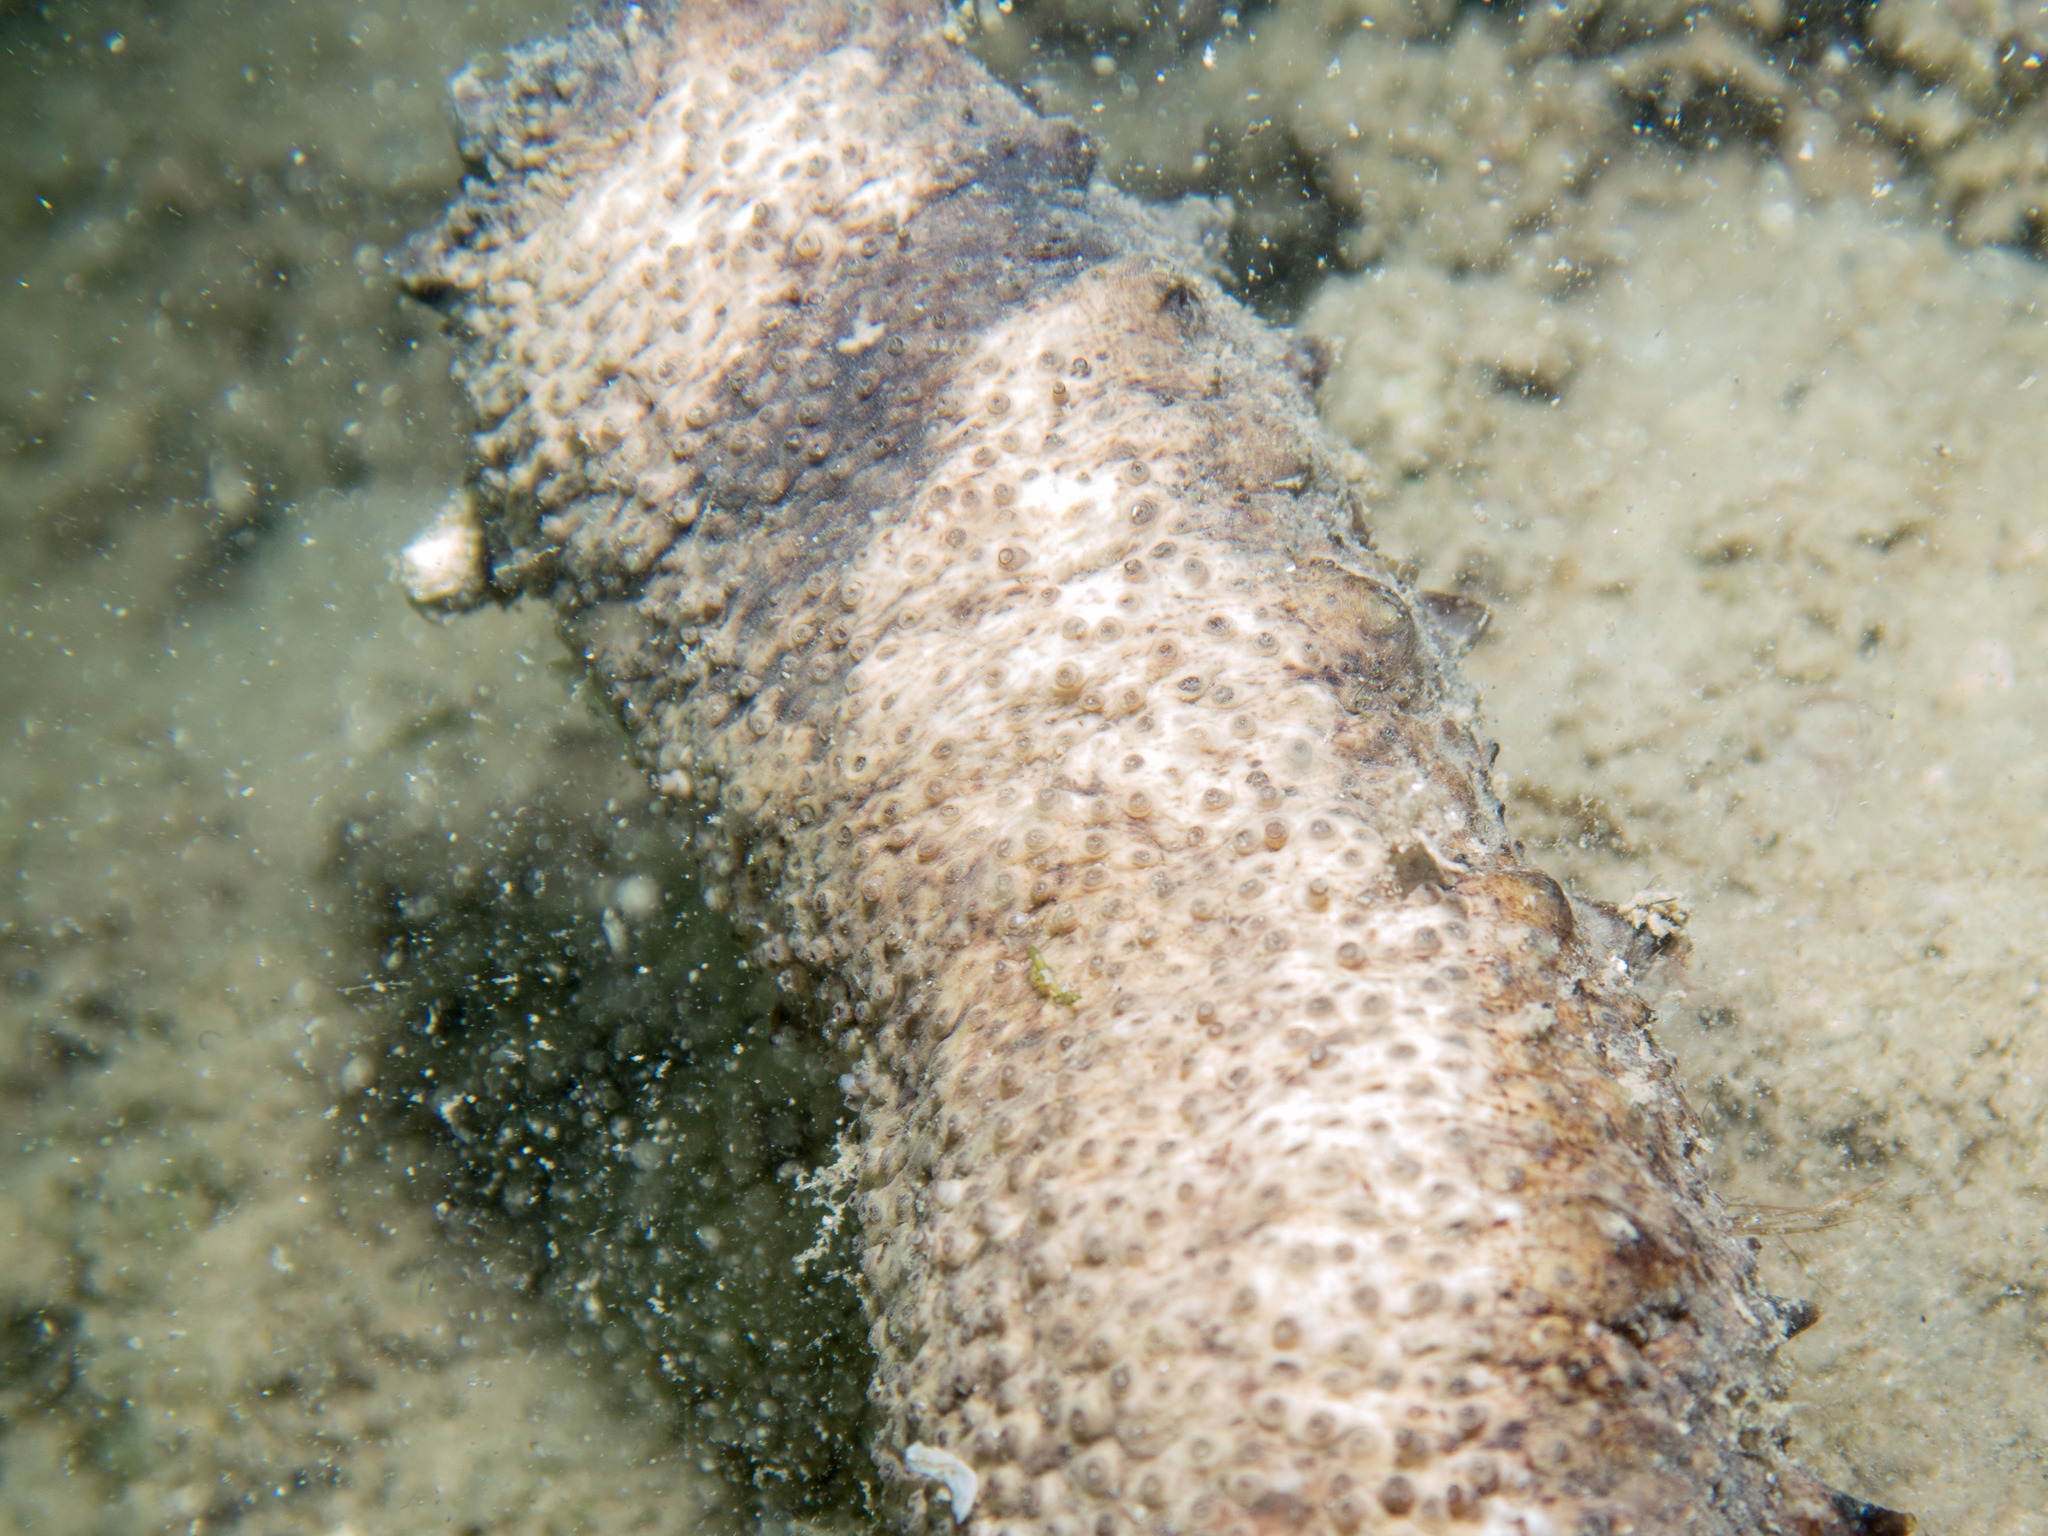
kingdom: Animalia
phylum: Echinodermata
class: Holothuroidea
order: Holothuriida
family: Holothuriidae
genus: Holothuria
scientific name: Holothuria tubulosa
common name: Cotton-spinner
